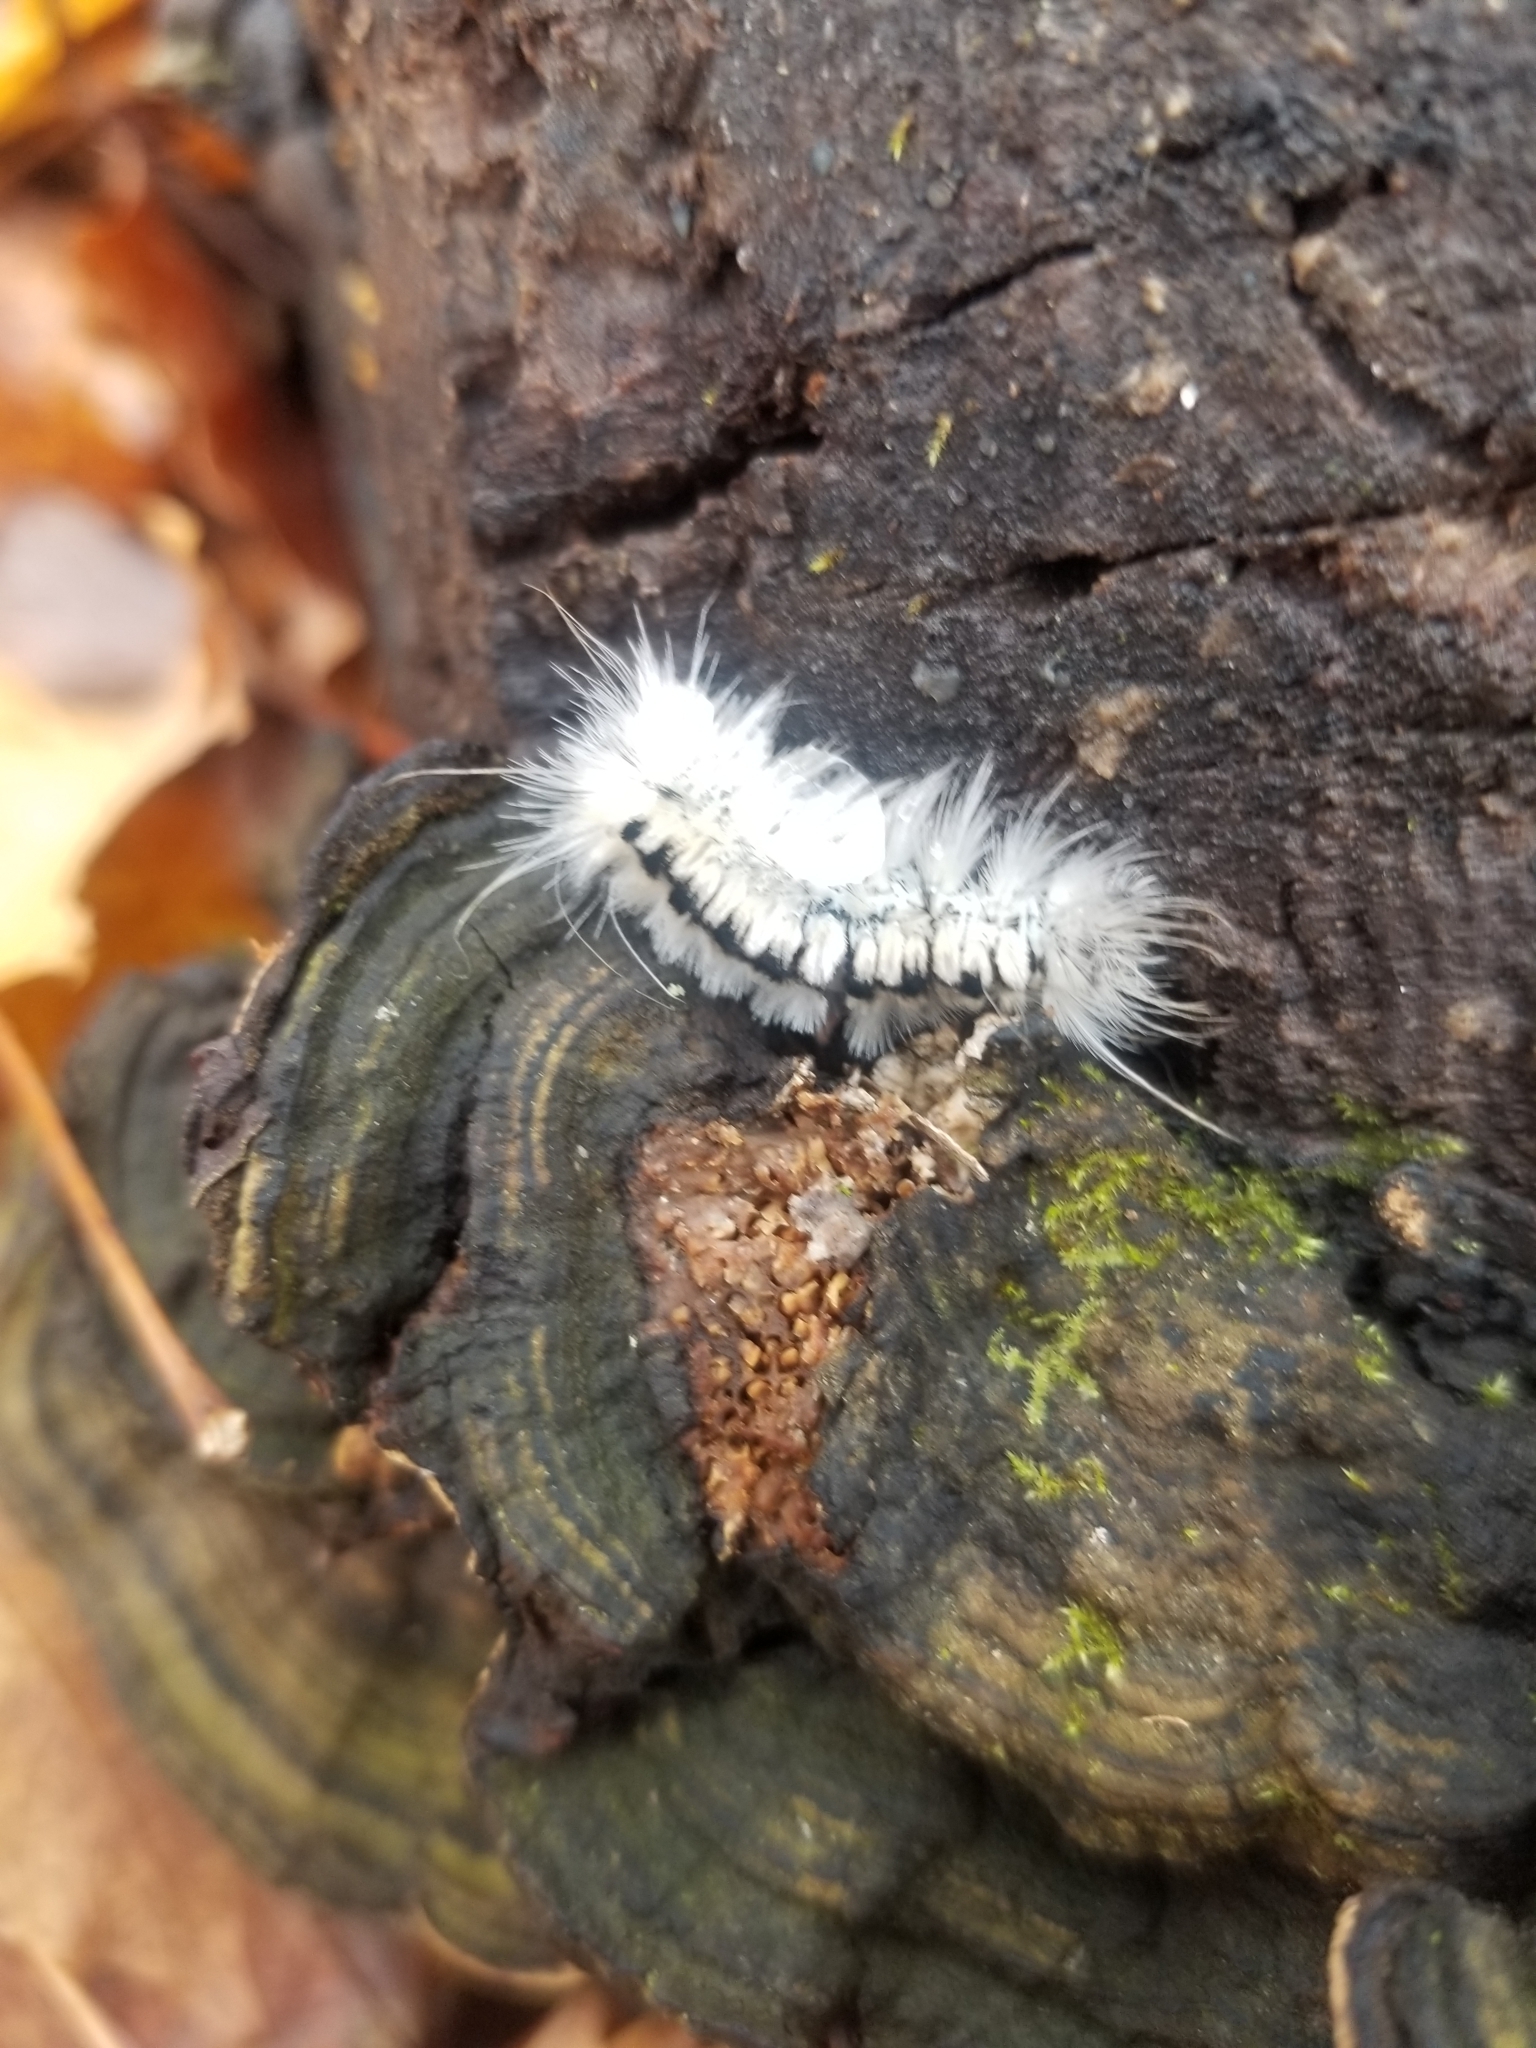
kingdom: Animalia
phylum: Arthropoda
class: Insecta
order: Lepidoptera
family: Erebidae
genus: Lophocampa
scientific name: Lophocampa caryae
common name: Hickory tussock moth
